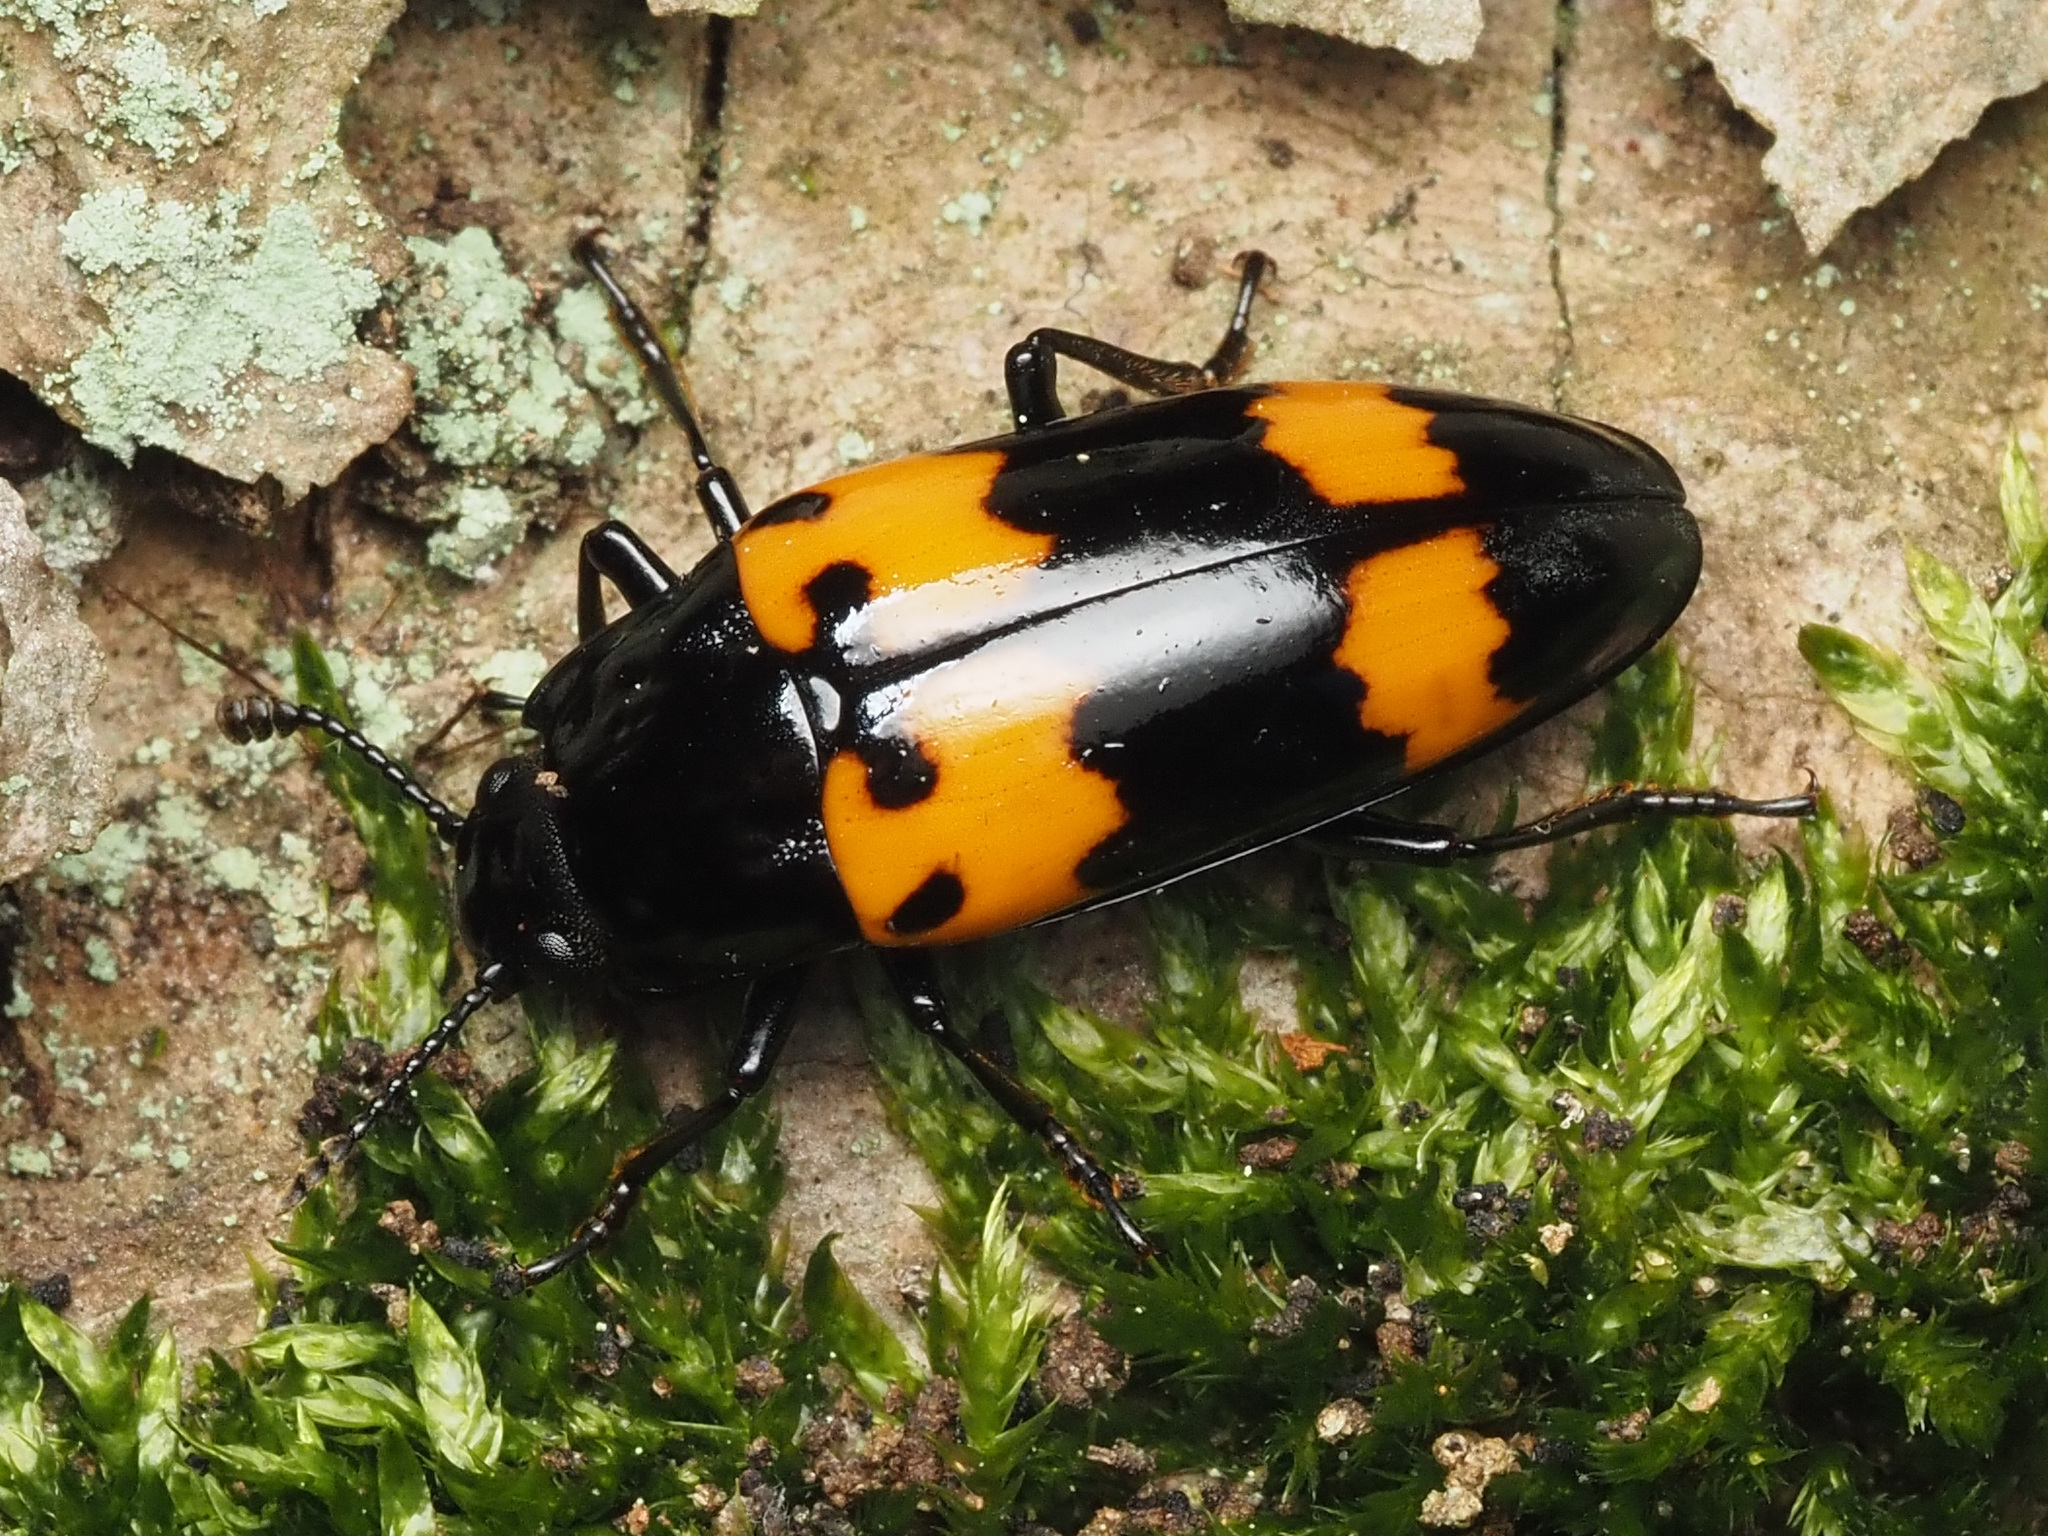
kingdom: Animalia
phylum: Arthropoda
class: Insecta
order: Coleoptera
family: Erotylidae
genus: Megalodacne
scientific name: Megalodacne heros
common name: Pleasing fungus beetle
